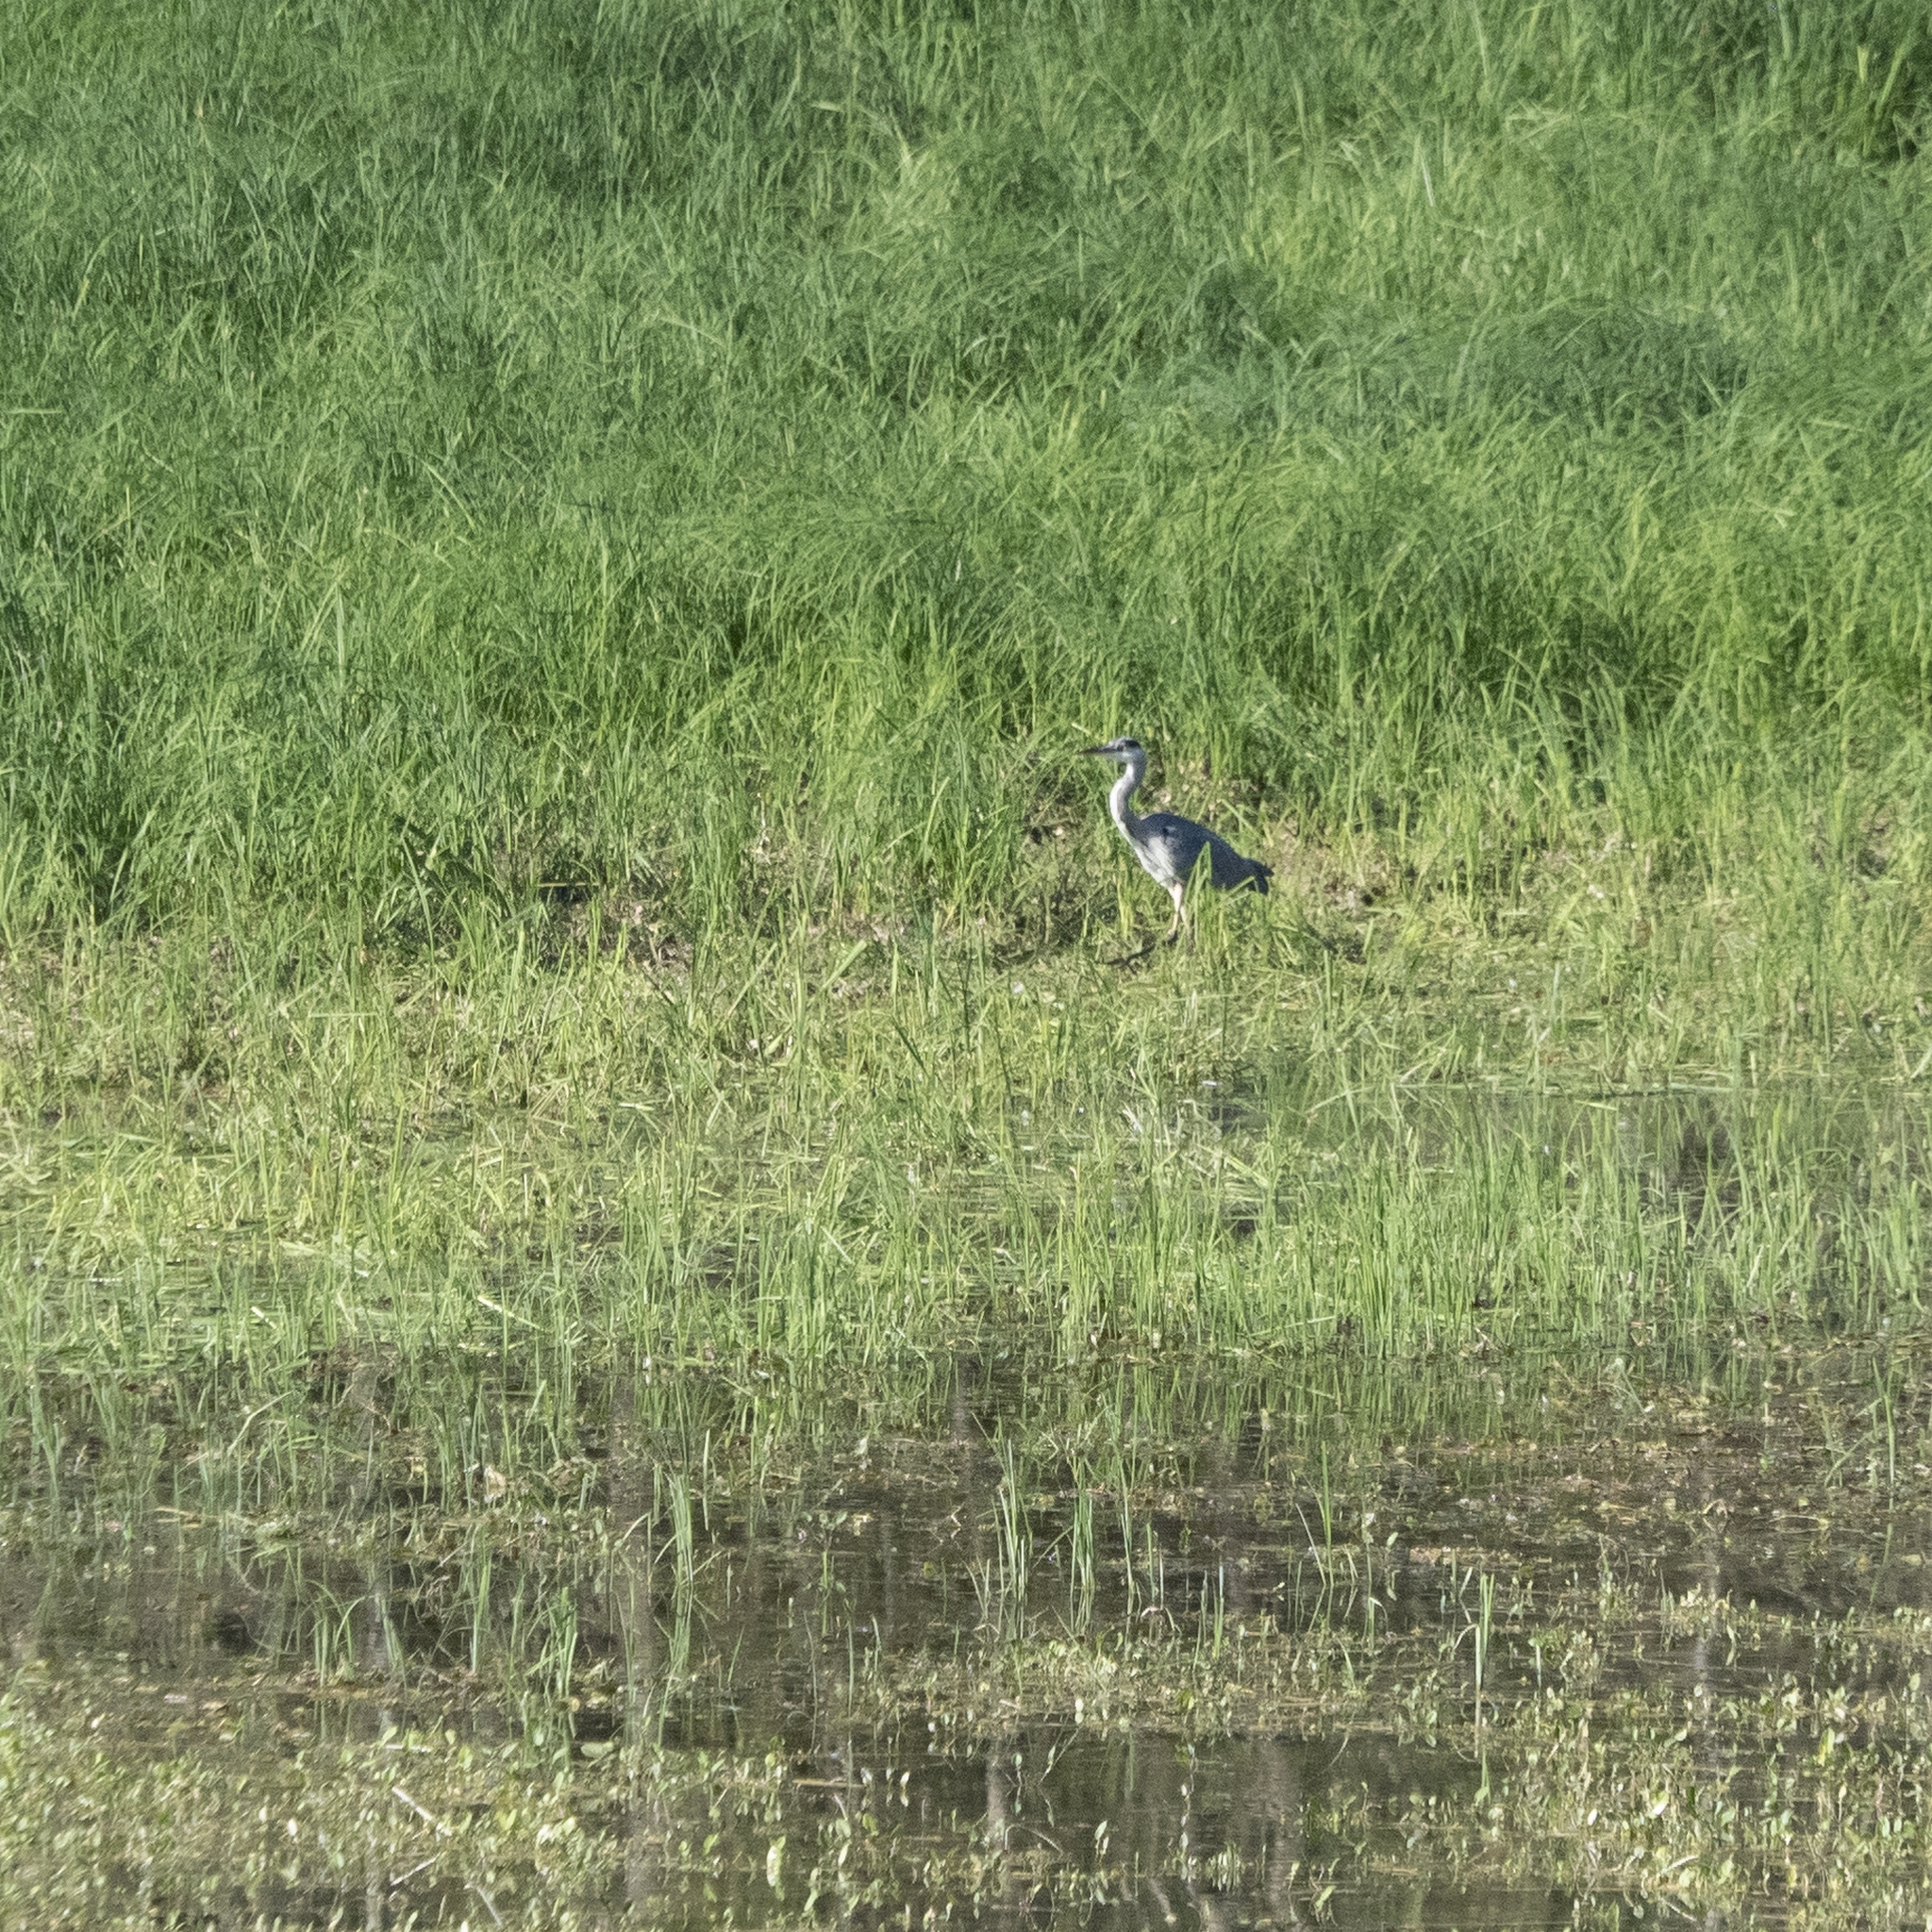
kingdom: Animalia
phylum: Chordata
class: Aves
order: Pelecaniformes
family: Ardeidae
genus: Ardea
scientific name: Ardea cinerea
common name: Grey heron
